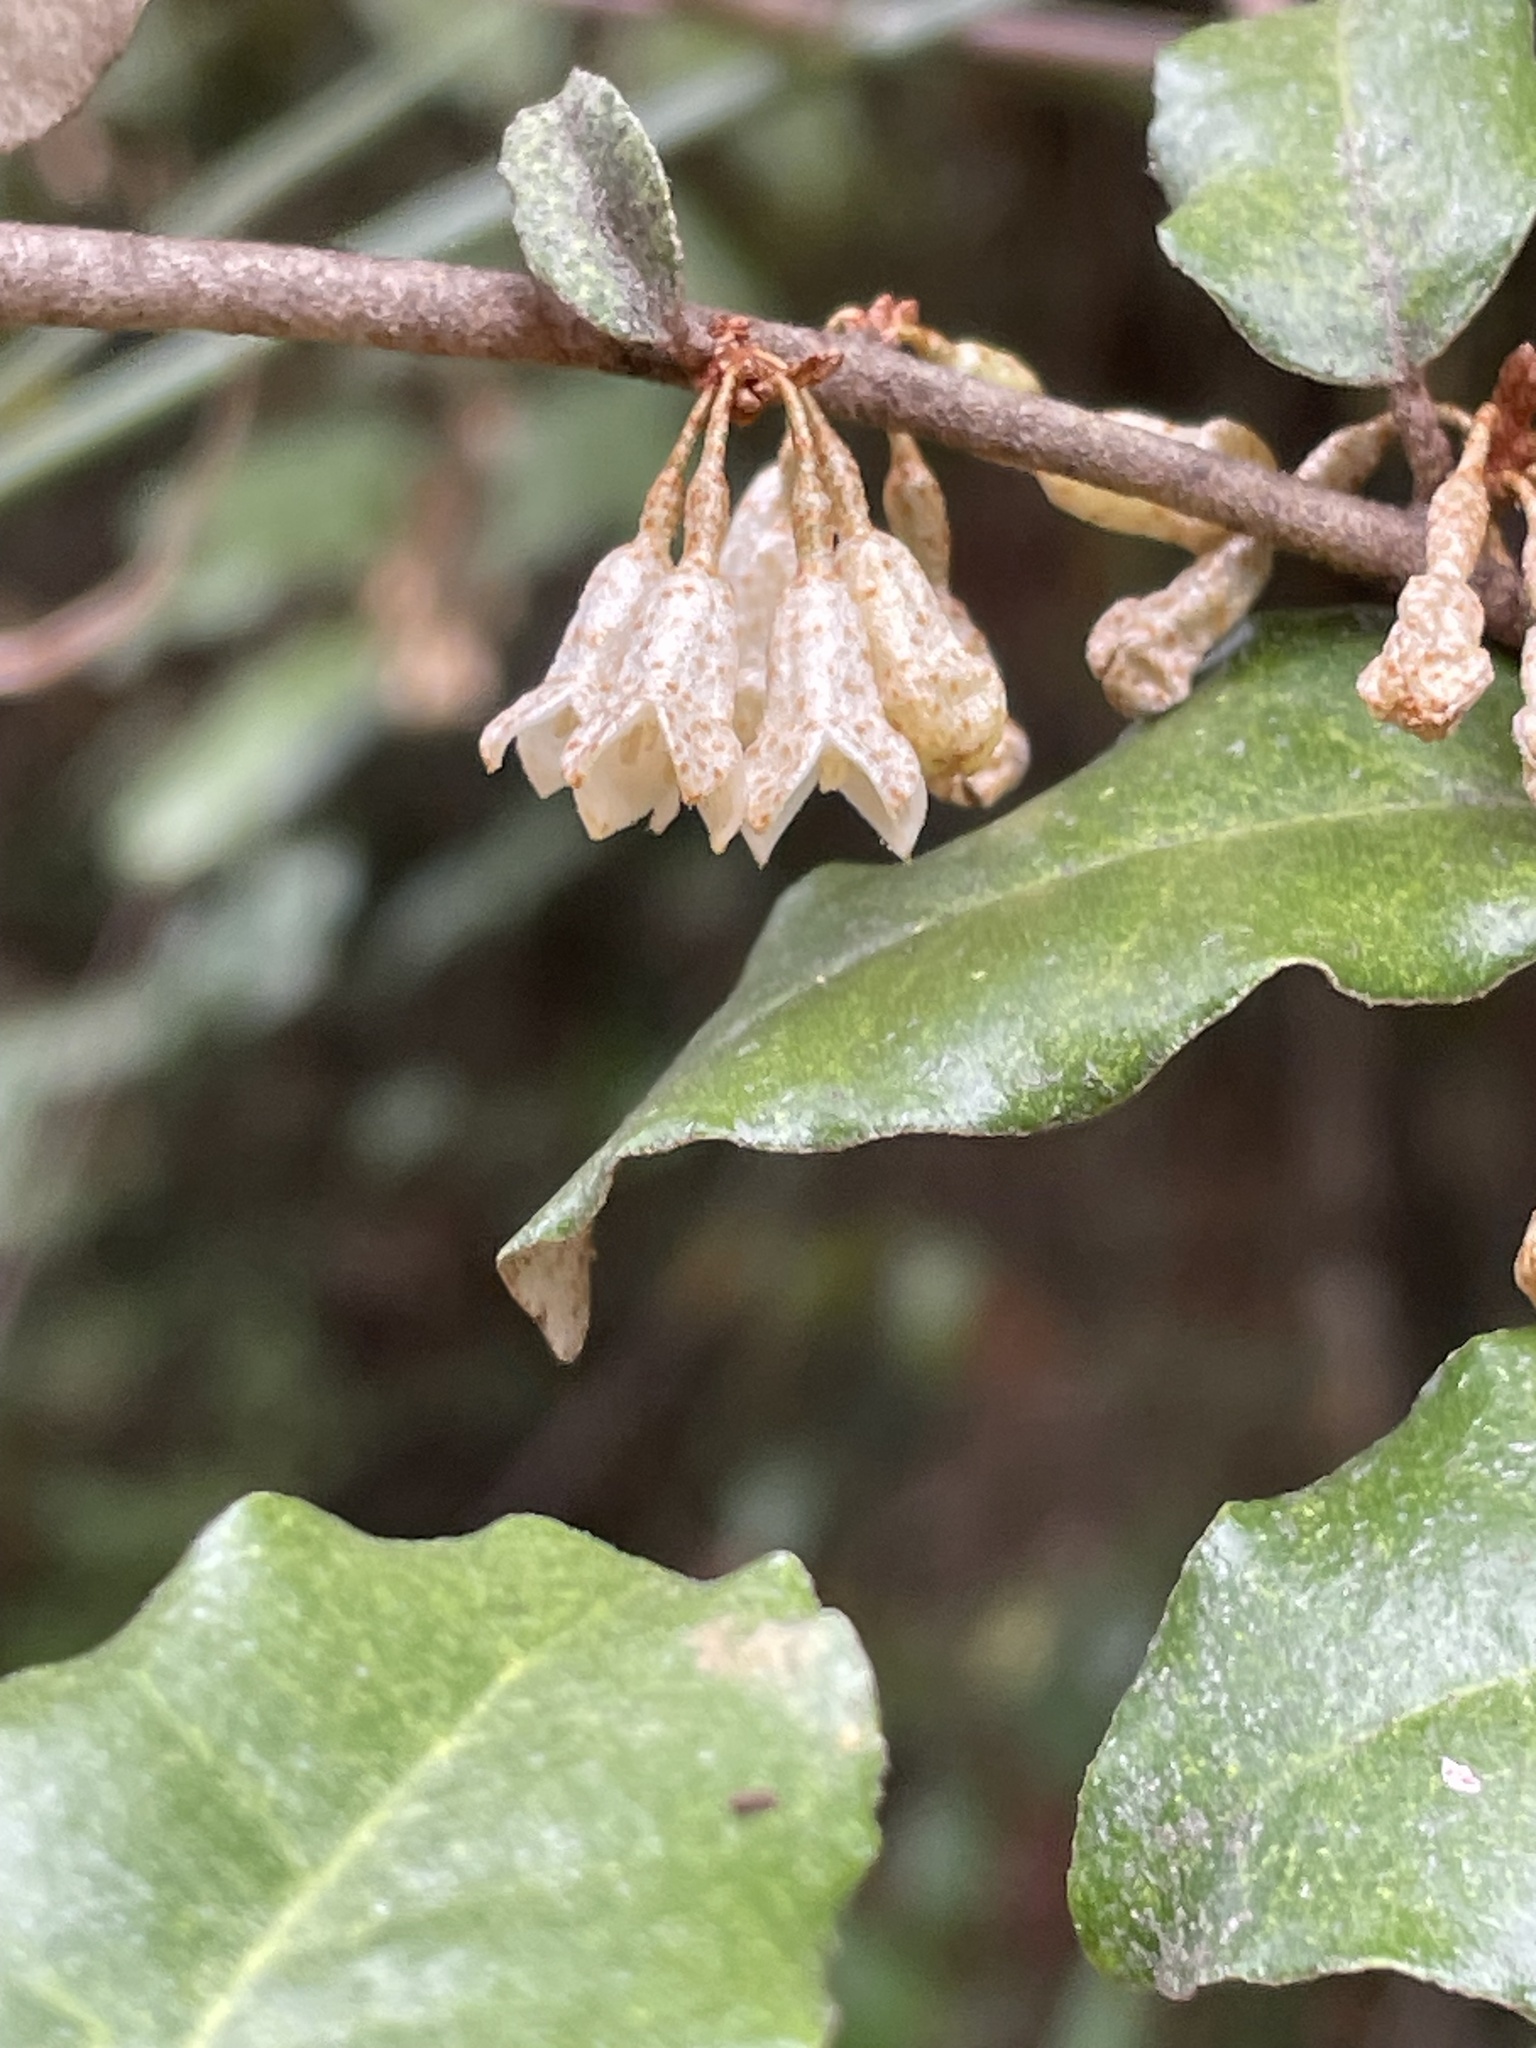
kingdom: Plantae
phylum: Tracheophyta
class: Magnoliopsida
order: Rosales
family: Elaeagnaceae
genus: Elaeagnus
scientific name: Elaeagnus pungens
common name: Spiny oleaster
